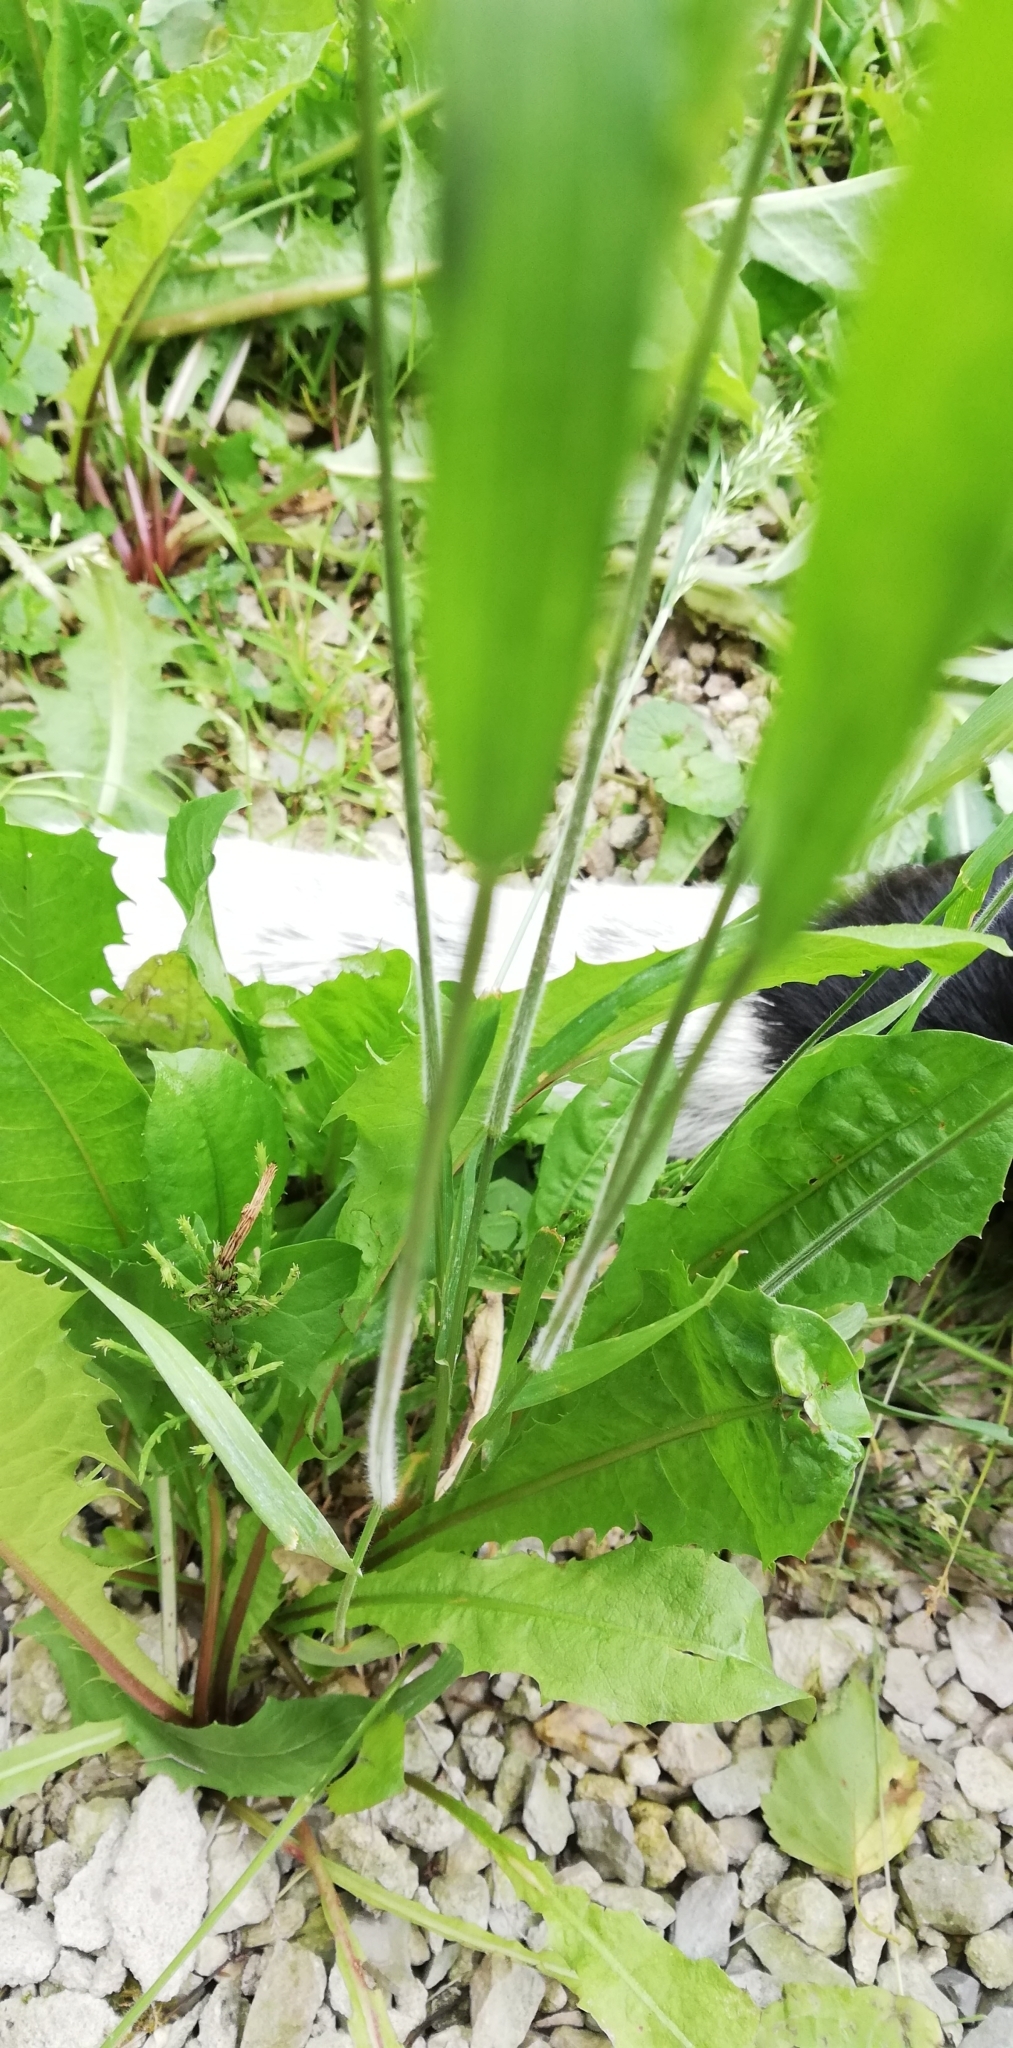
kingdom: Plantae
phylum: Tracheophyta
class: Liliopsida
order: Poales
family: Poaceae
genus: Trisetum
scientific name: Trisetum flavescens
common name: Yellow oat-grass
